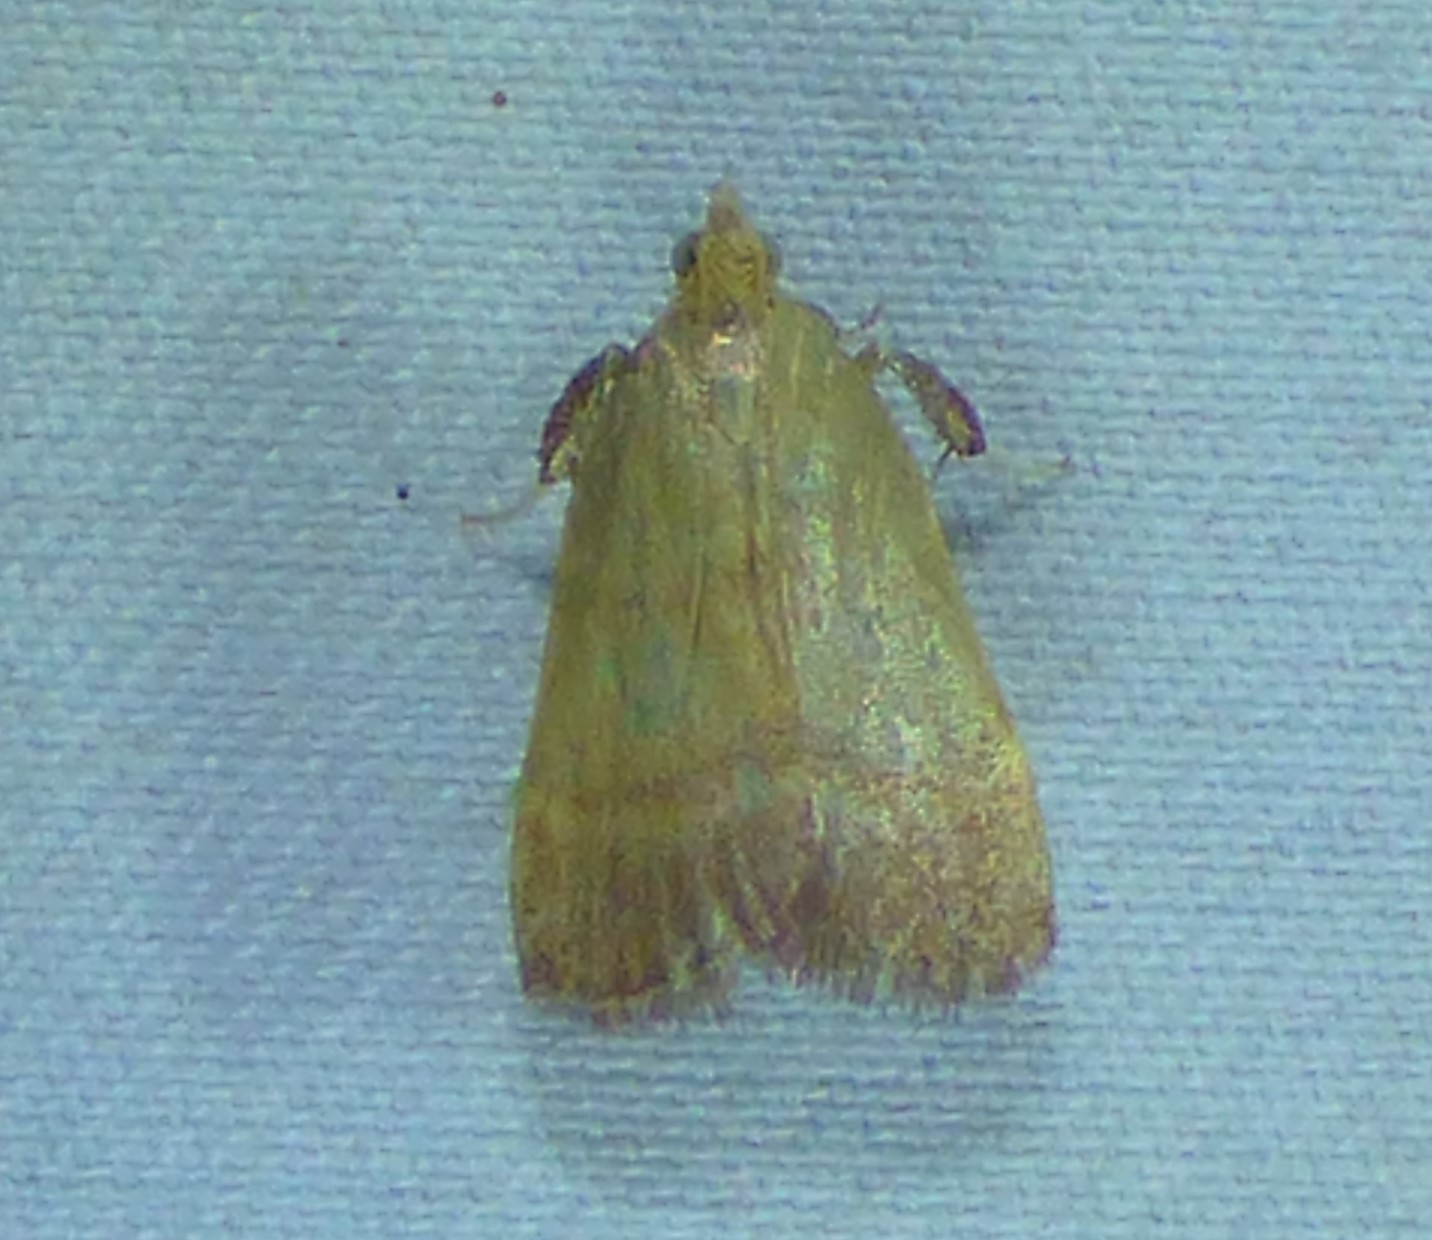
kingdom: Animalia
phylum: Arthropoda
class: Insecta
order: Lepidoptera
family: Pyralidae
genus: Condylolomia
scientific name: Condylolomia participialis
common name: Drab condylolomia moth
